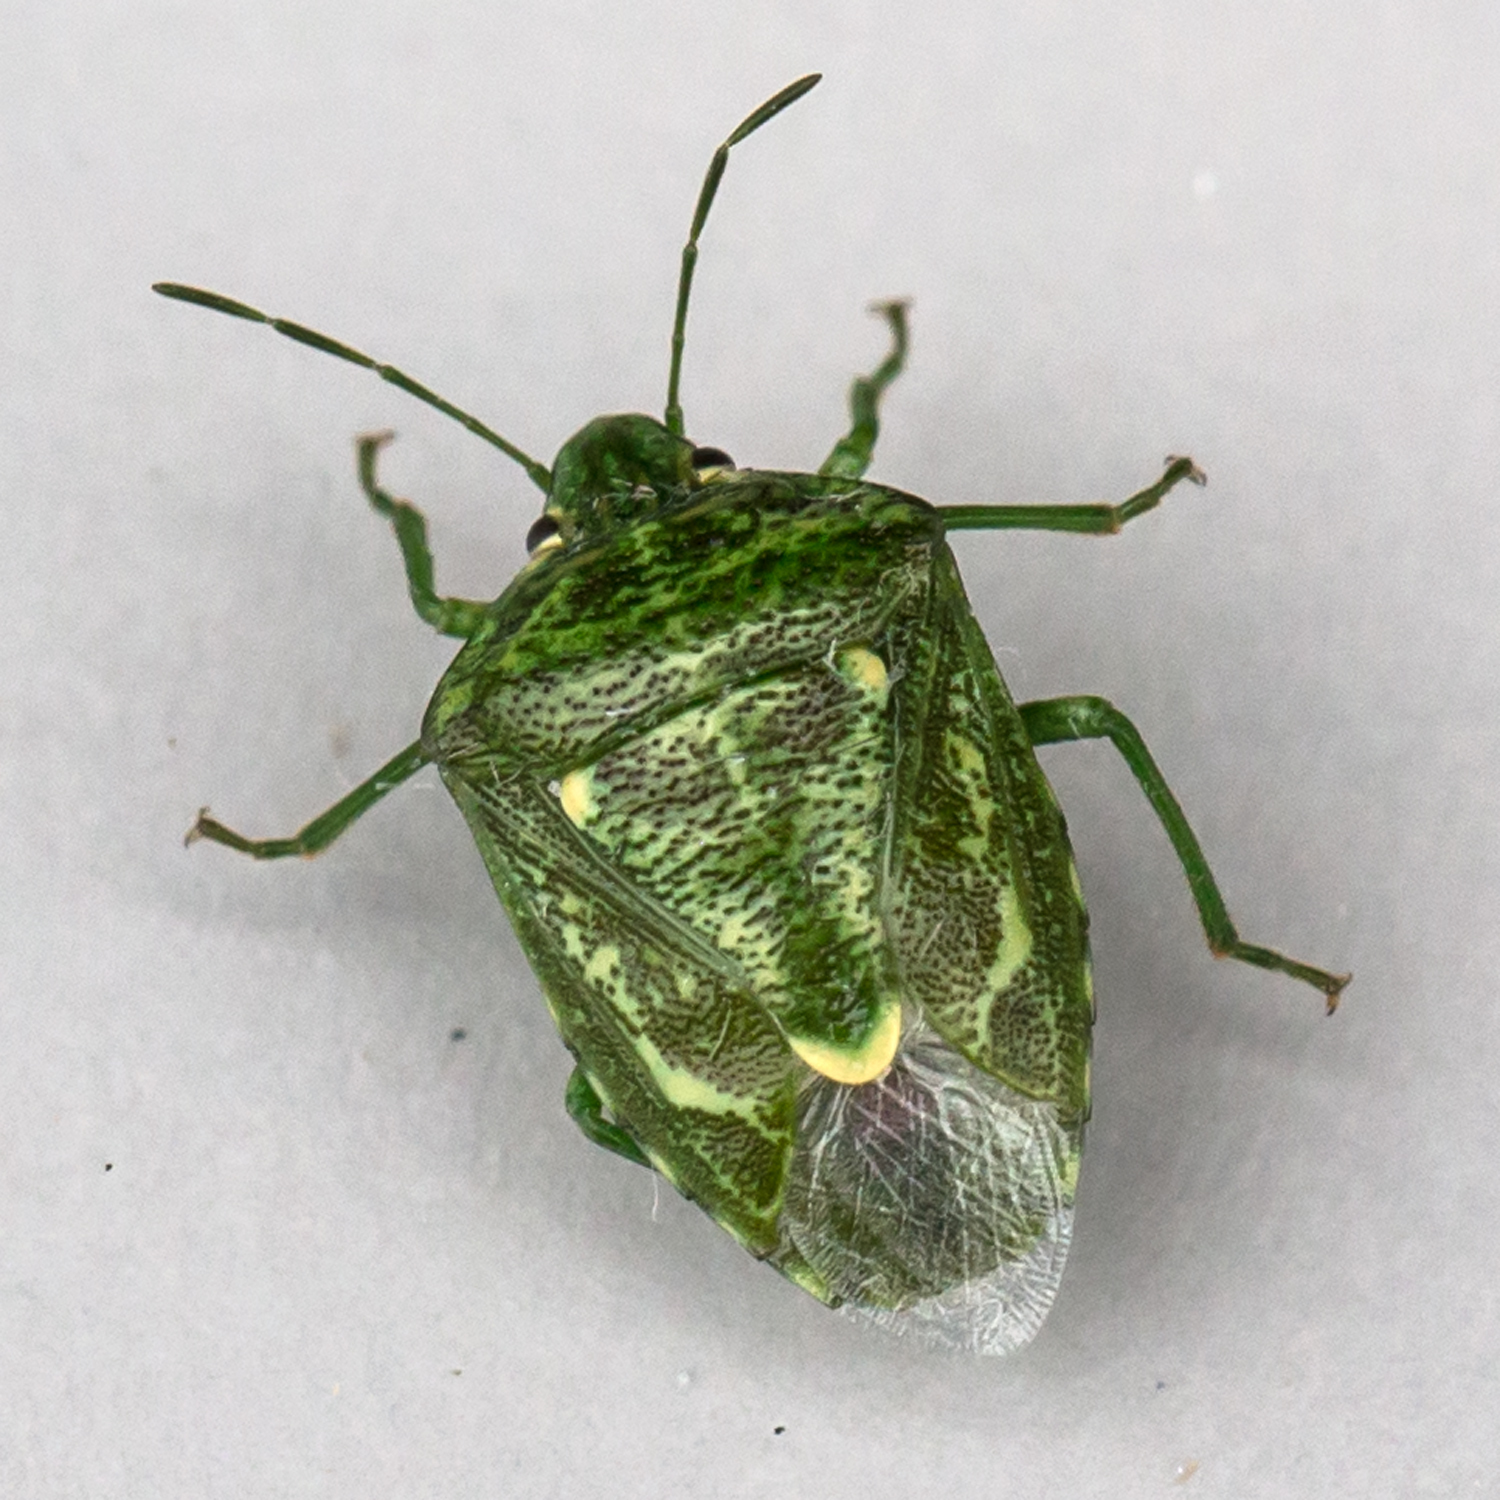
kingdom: Animalia
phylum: Arthropoda
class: Insecta
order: Hemiptera
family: Pentatomidae
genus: Banasa
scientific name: Banasa euchlora
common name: Cedar berry bug
